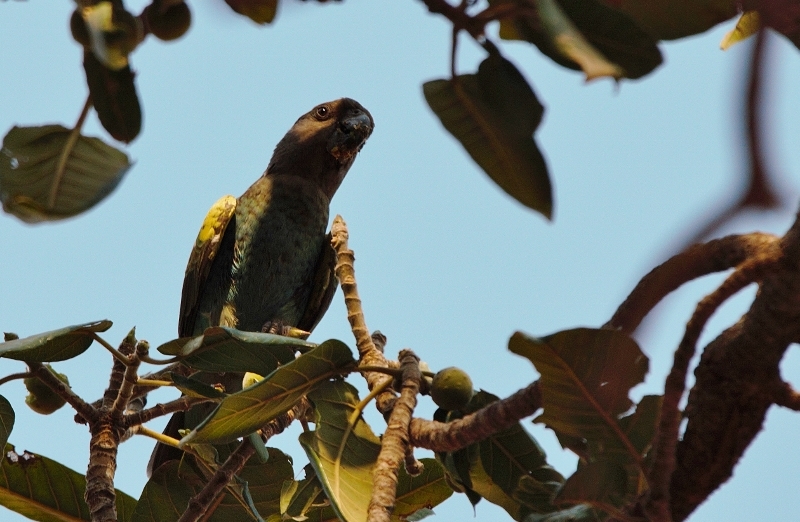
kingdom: Animalia
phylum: Chordata
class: Aves
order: Psittaciformes
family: Psittacidae
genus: Poicephalus
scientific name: Poicephalus meyeri
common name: Meyer's parrot
